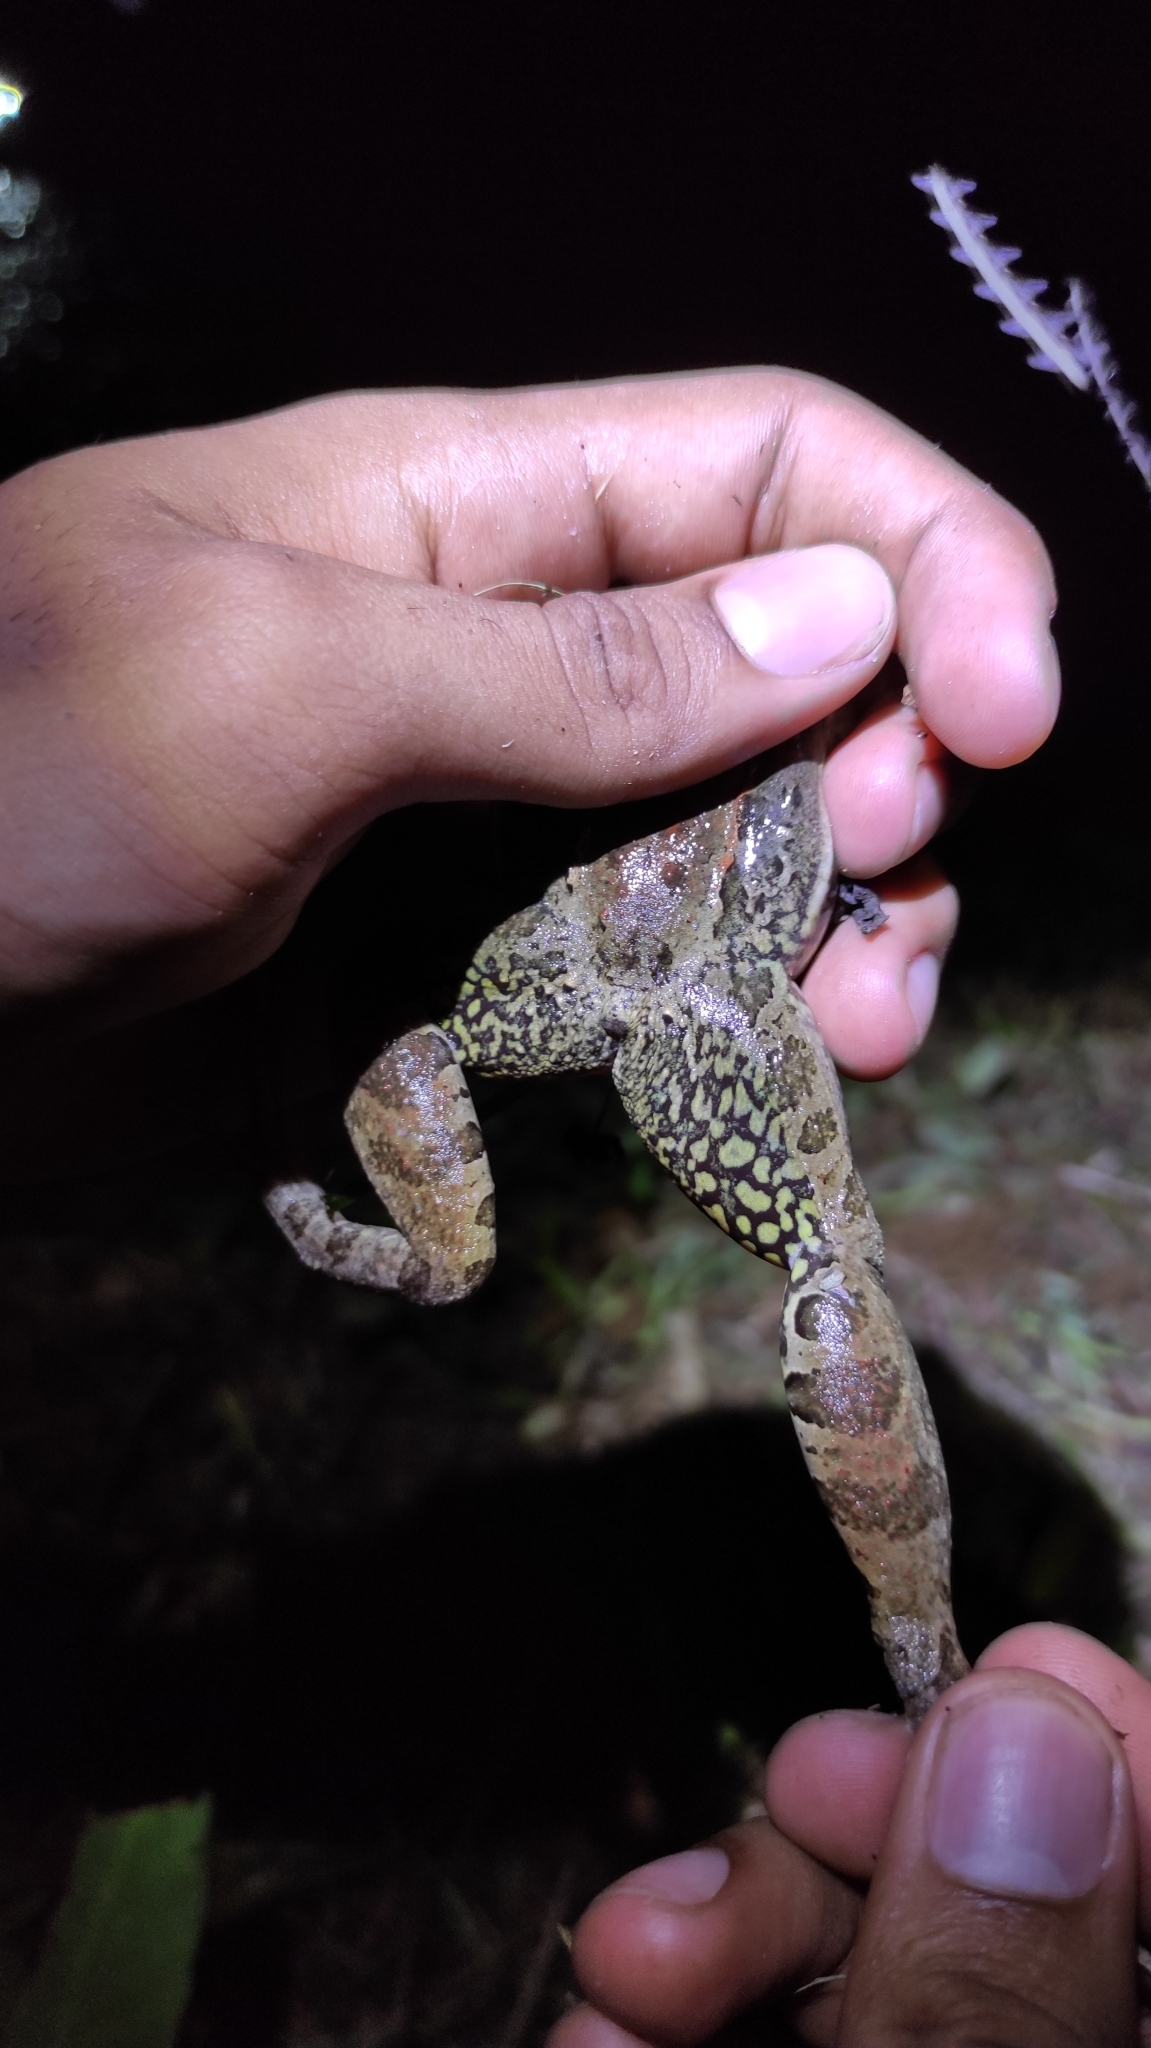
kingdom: Animalia
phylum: Chordata
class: Amphibia
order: Anura
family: Leptodactylidae
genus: Leptodactylus
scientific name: Leptodactylus insularum
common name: San miguel island frog
